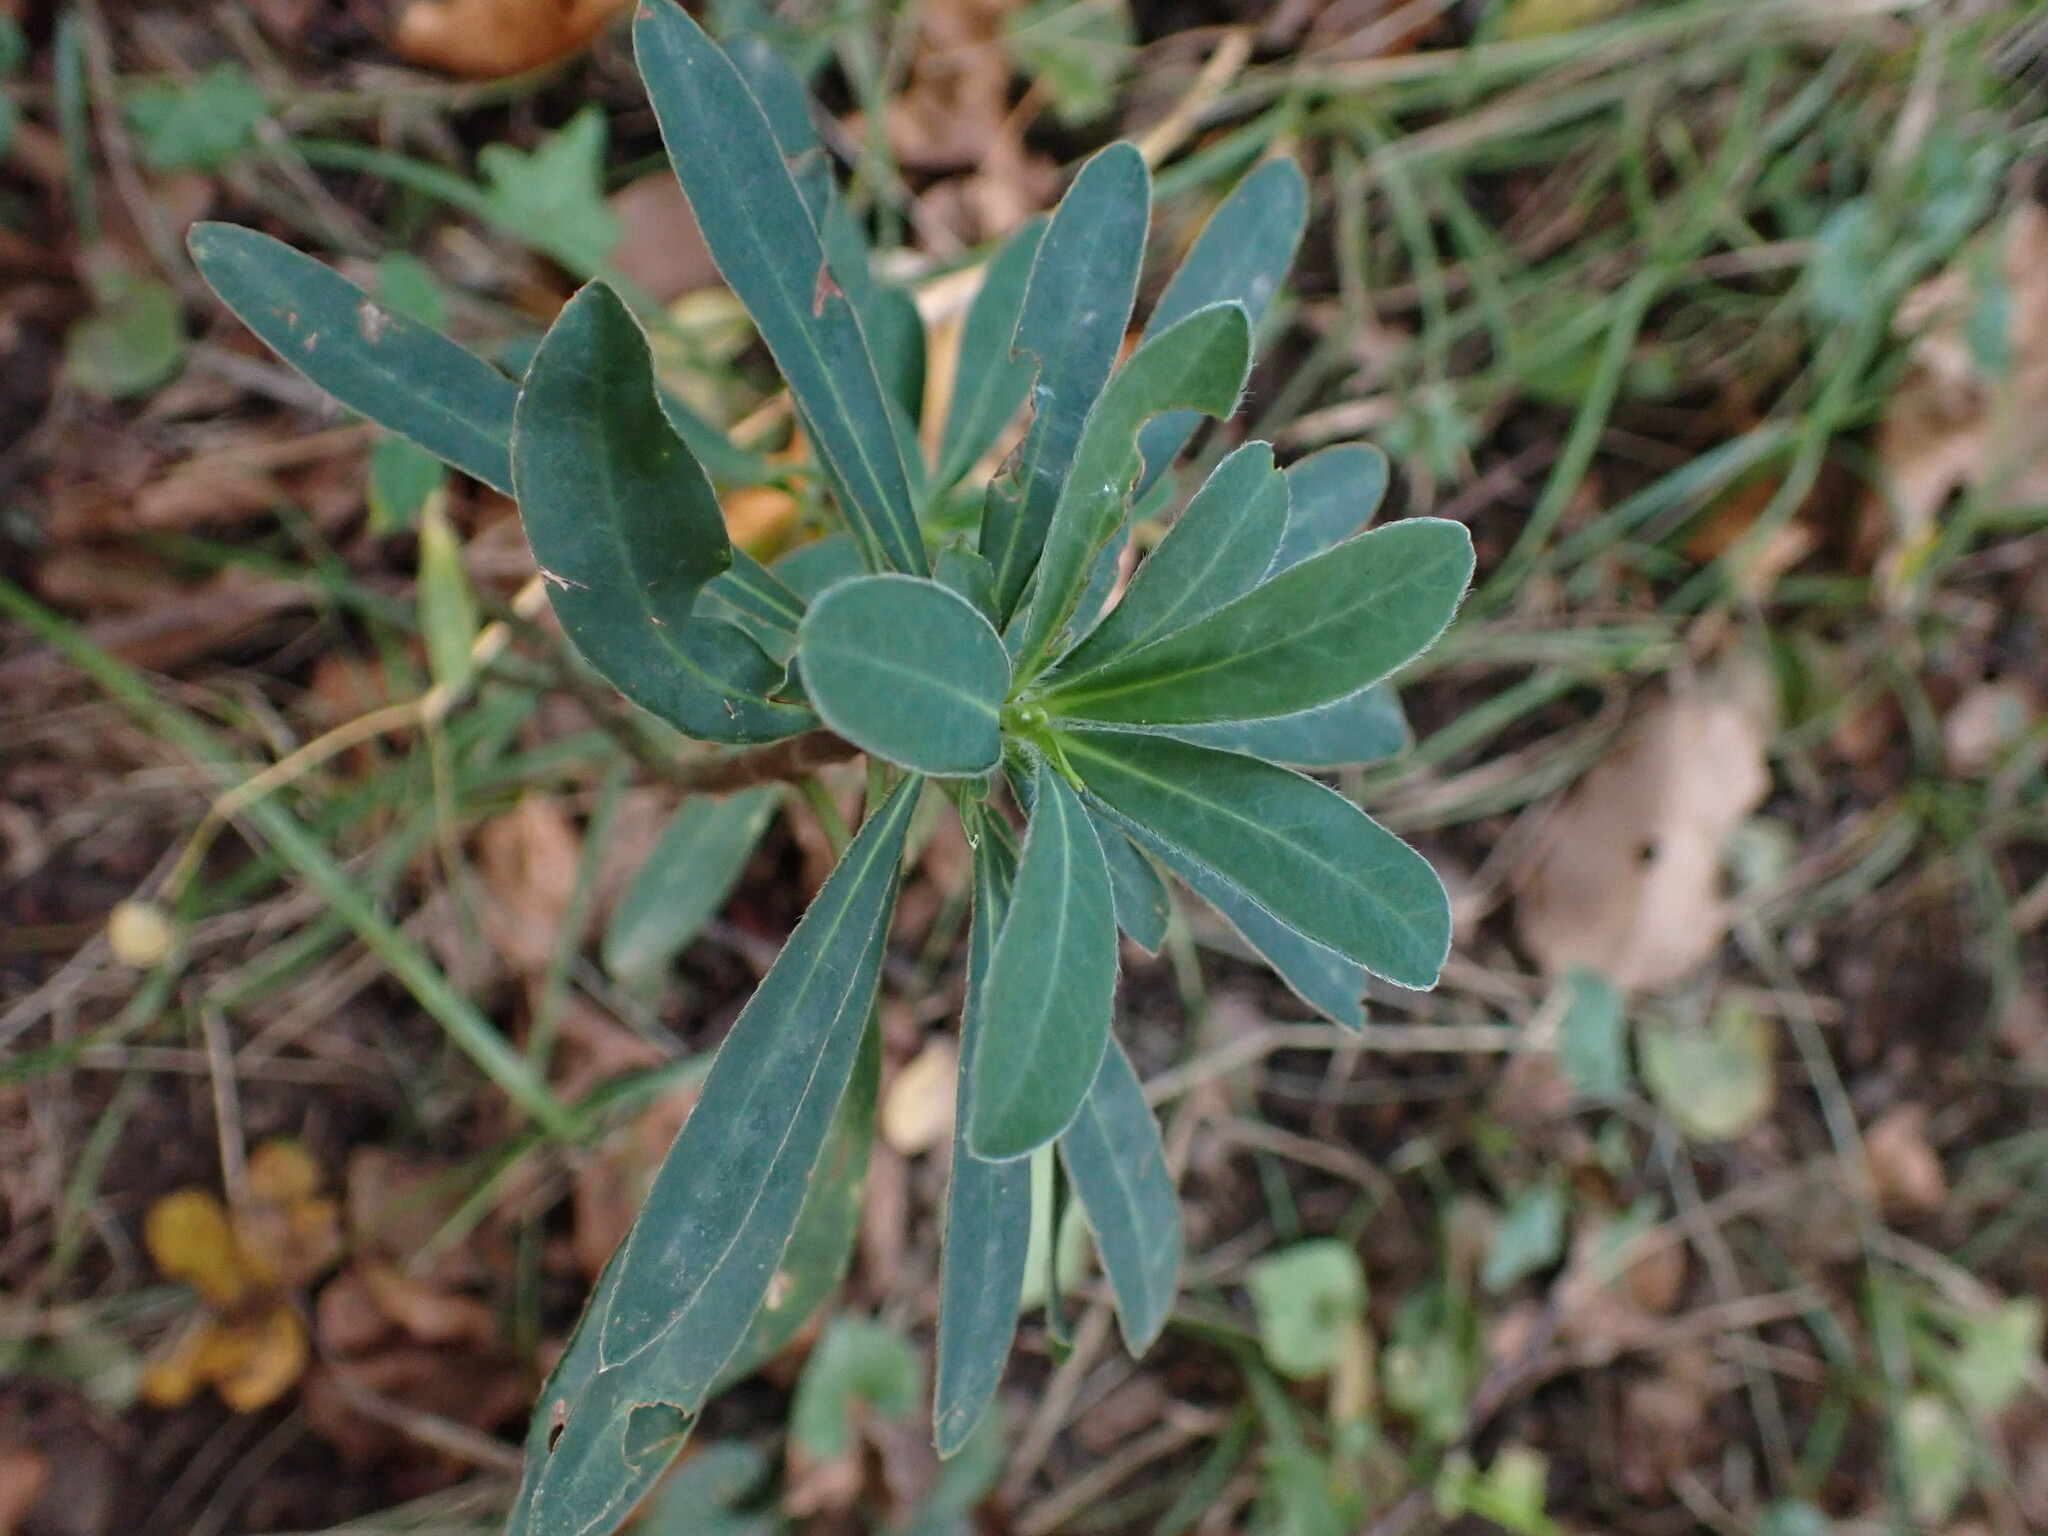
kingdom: Plantae
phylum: Tracheophyta
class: Magnoliopsida
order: Malpighiales
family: Euphorbiaceae
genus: Euphorbia
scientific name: Euphorbia amygdaloides
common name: Wood spurge
